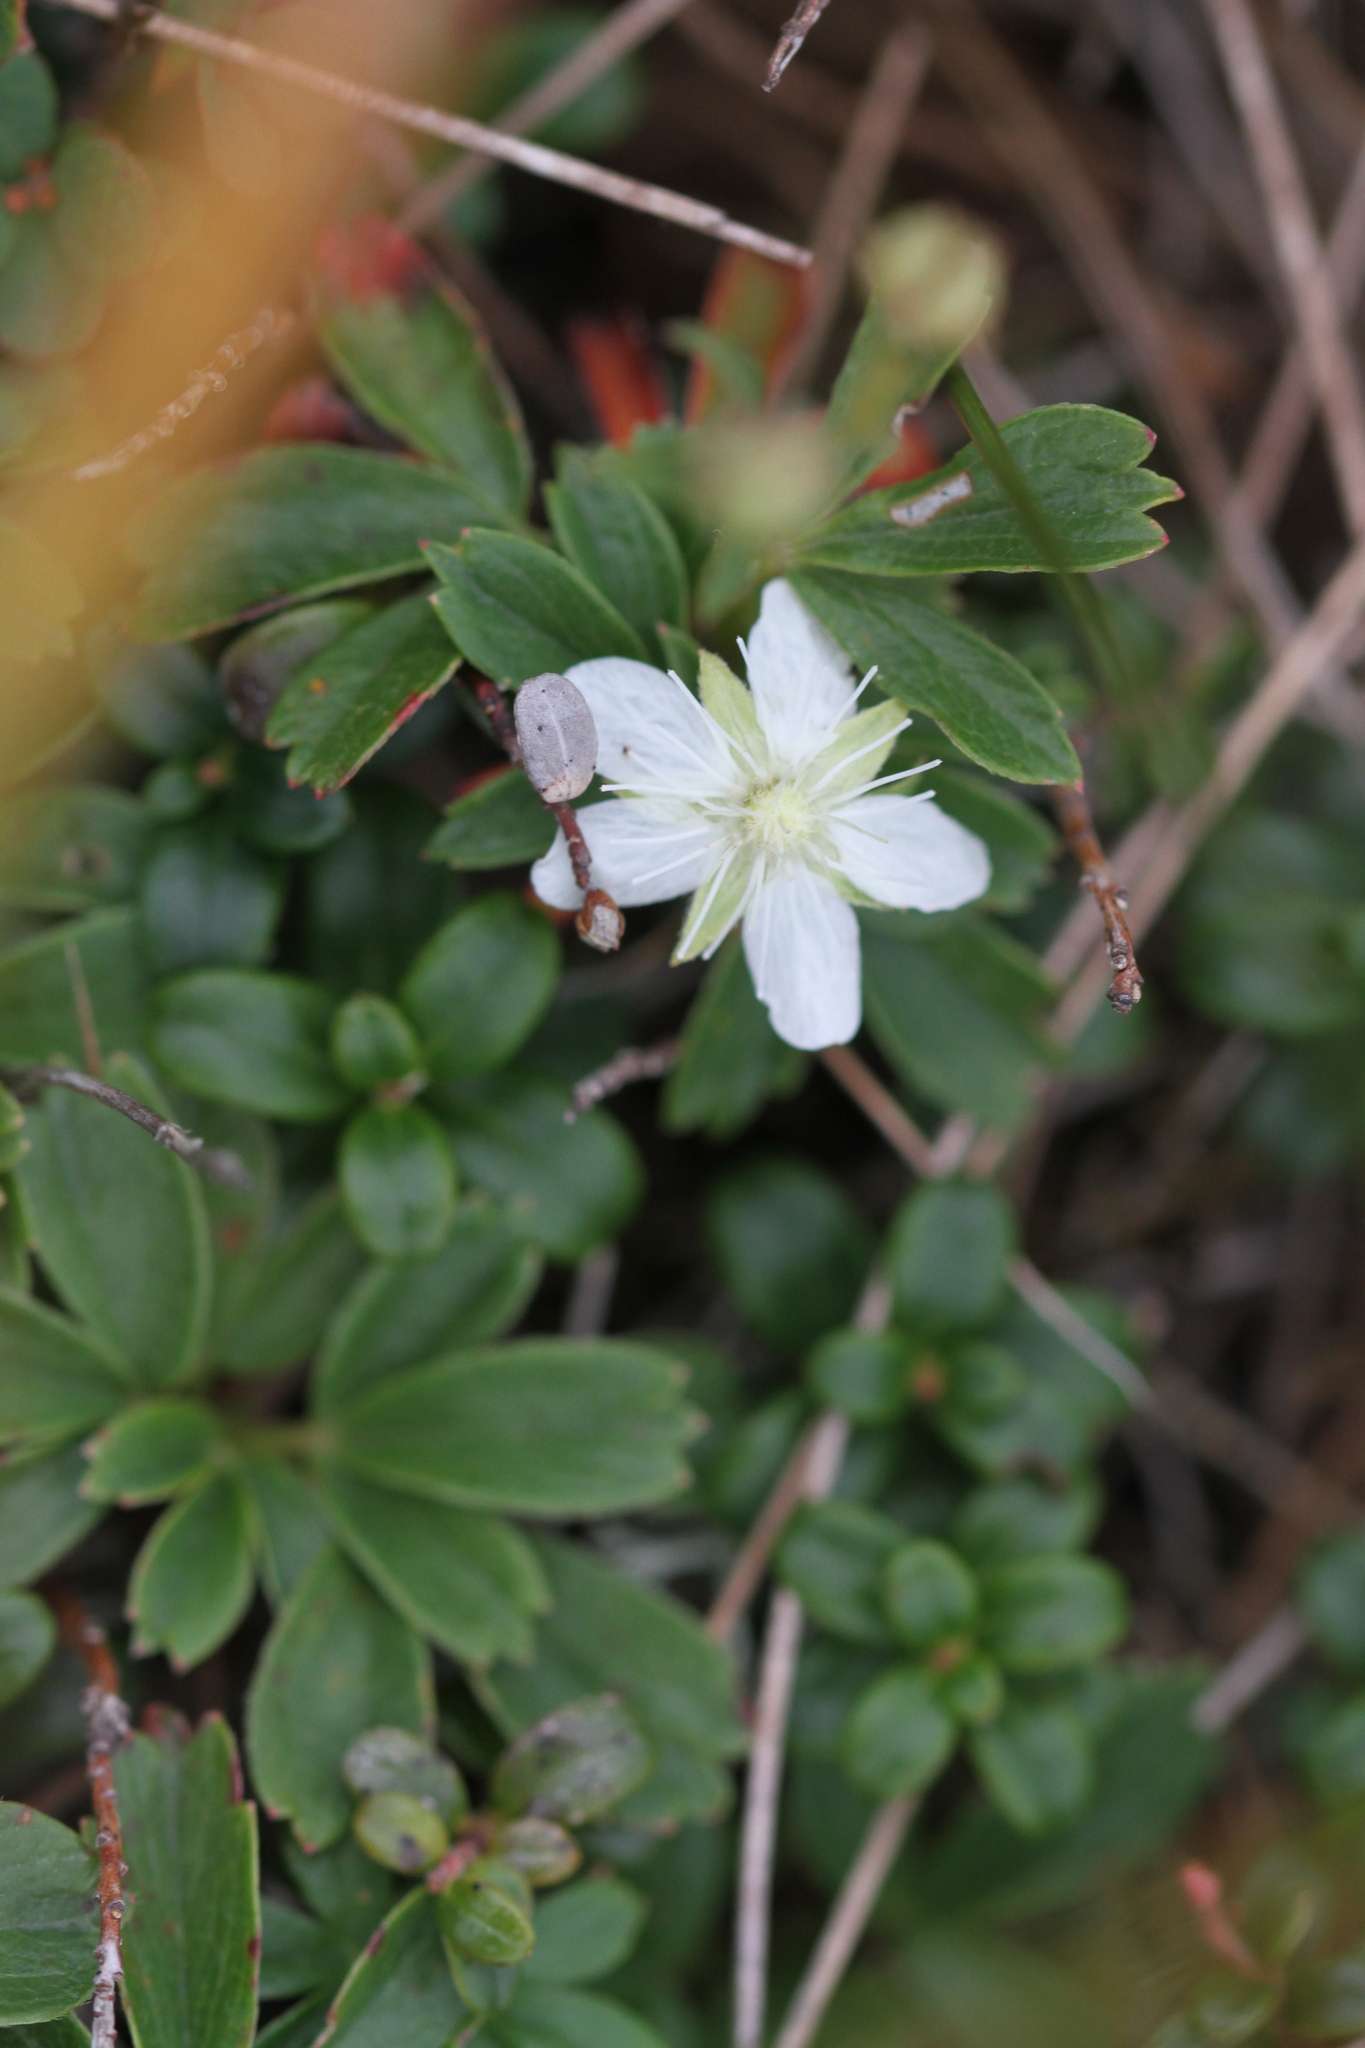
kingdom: Plantae
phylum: Tracheophyta
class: Magnoliopsida
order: Rosales
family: Rosaceae
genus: Sibbaldia
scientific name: Sibbaldia tridentata
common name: Three-toothed cinquefoil
